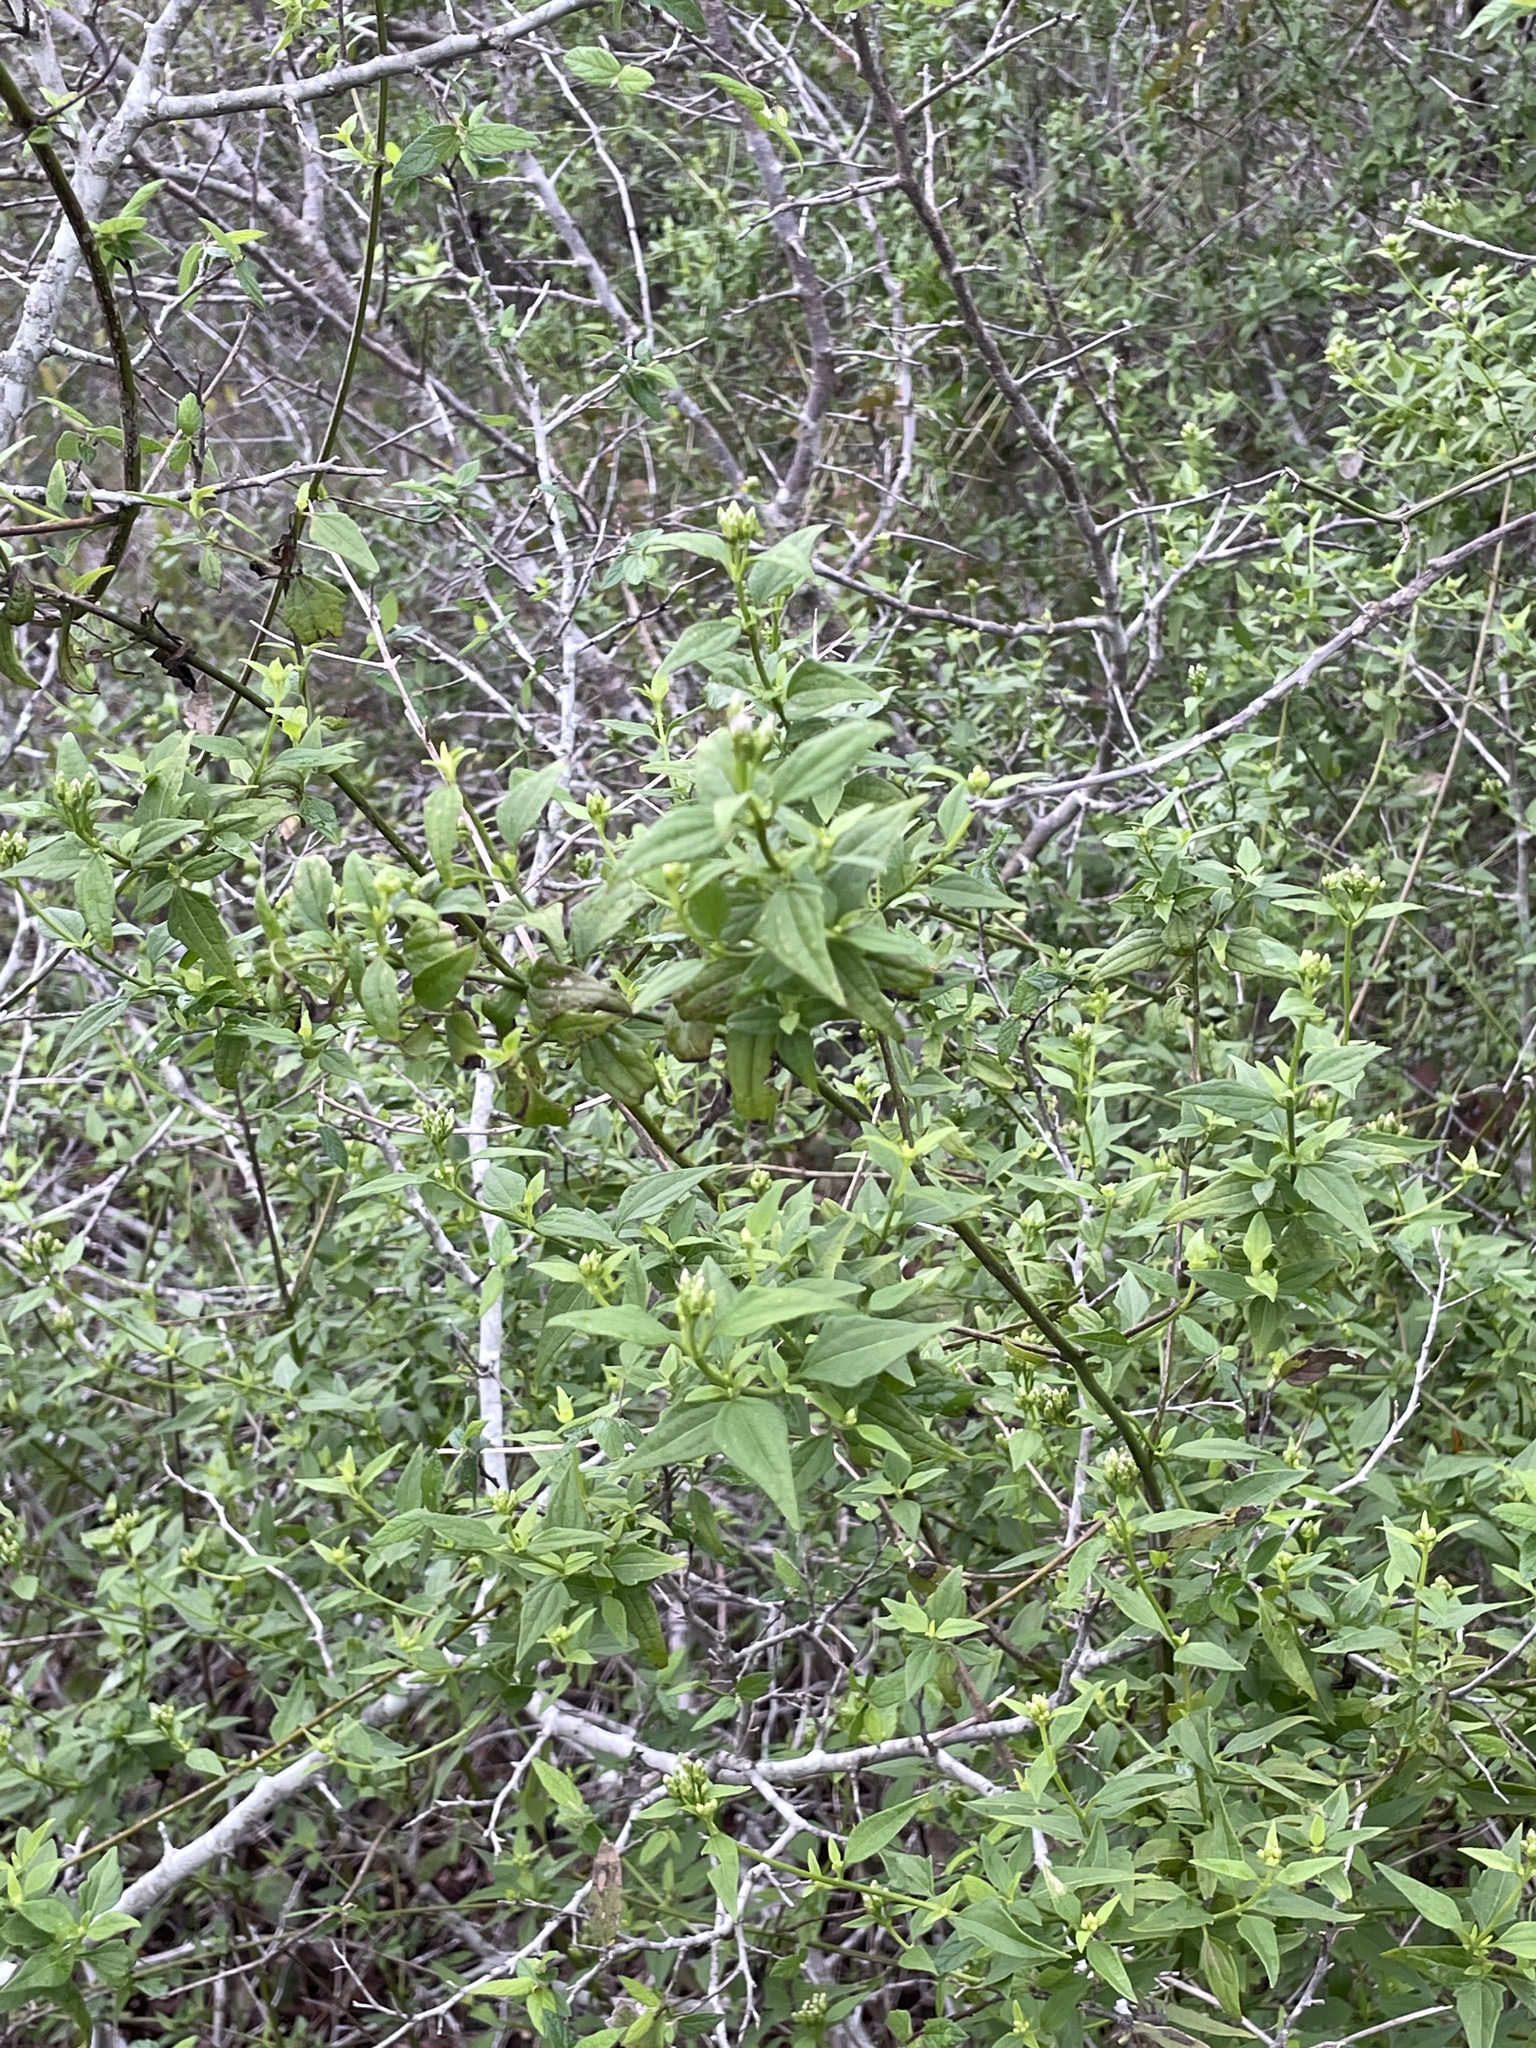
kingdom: Plantae
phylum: Tracheophyta
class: Magnoliopsida
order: Asterales
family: Asteraceae
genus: Chromolaena
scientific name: Chromolaena odorata
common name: Siamweed
